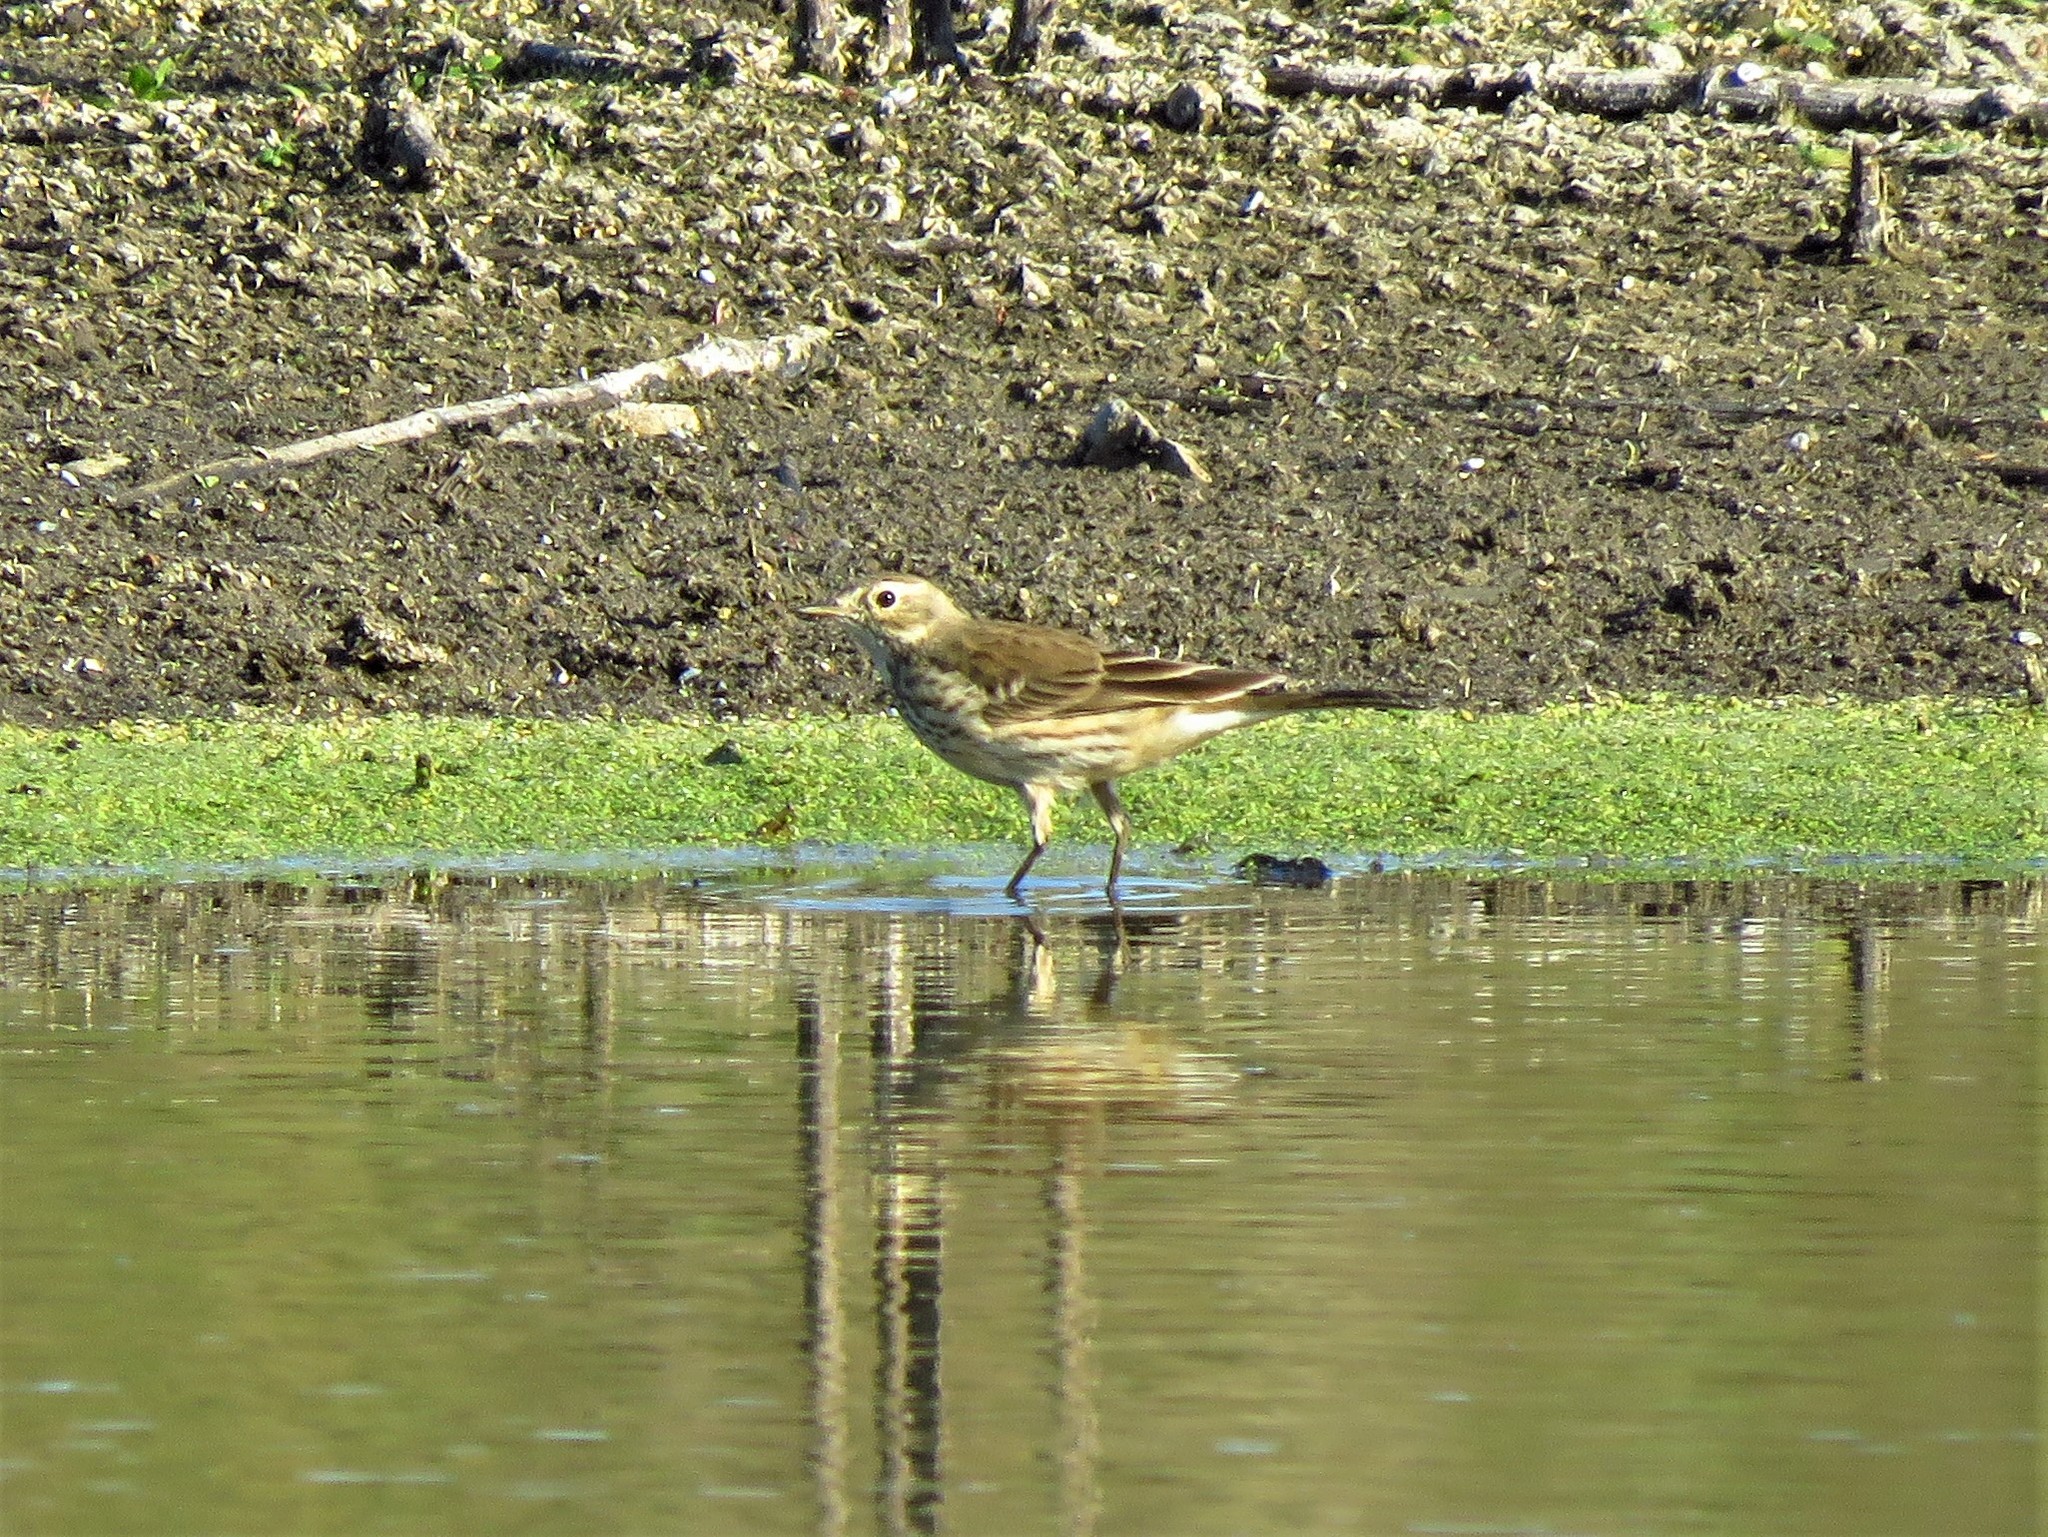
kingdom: Animalia
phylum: Chordata
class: Aves
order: Passeriformes
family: Motacillidae
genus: Anthus
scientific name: Anthus rubescens
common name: Buff-bellied pipit
